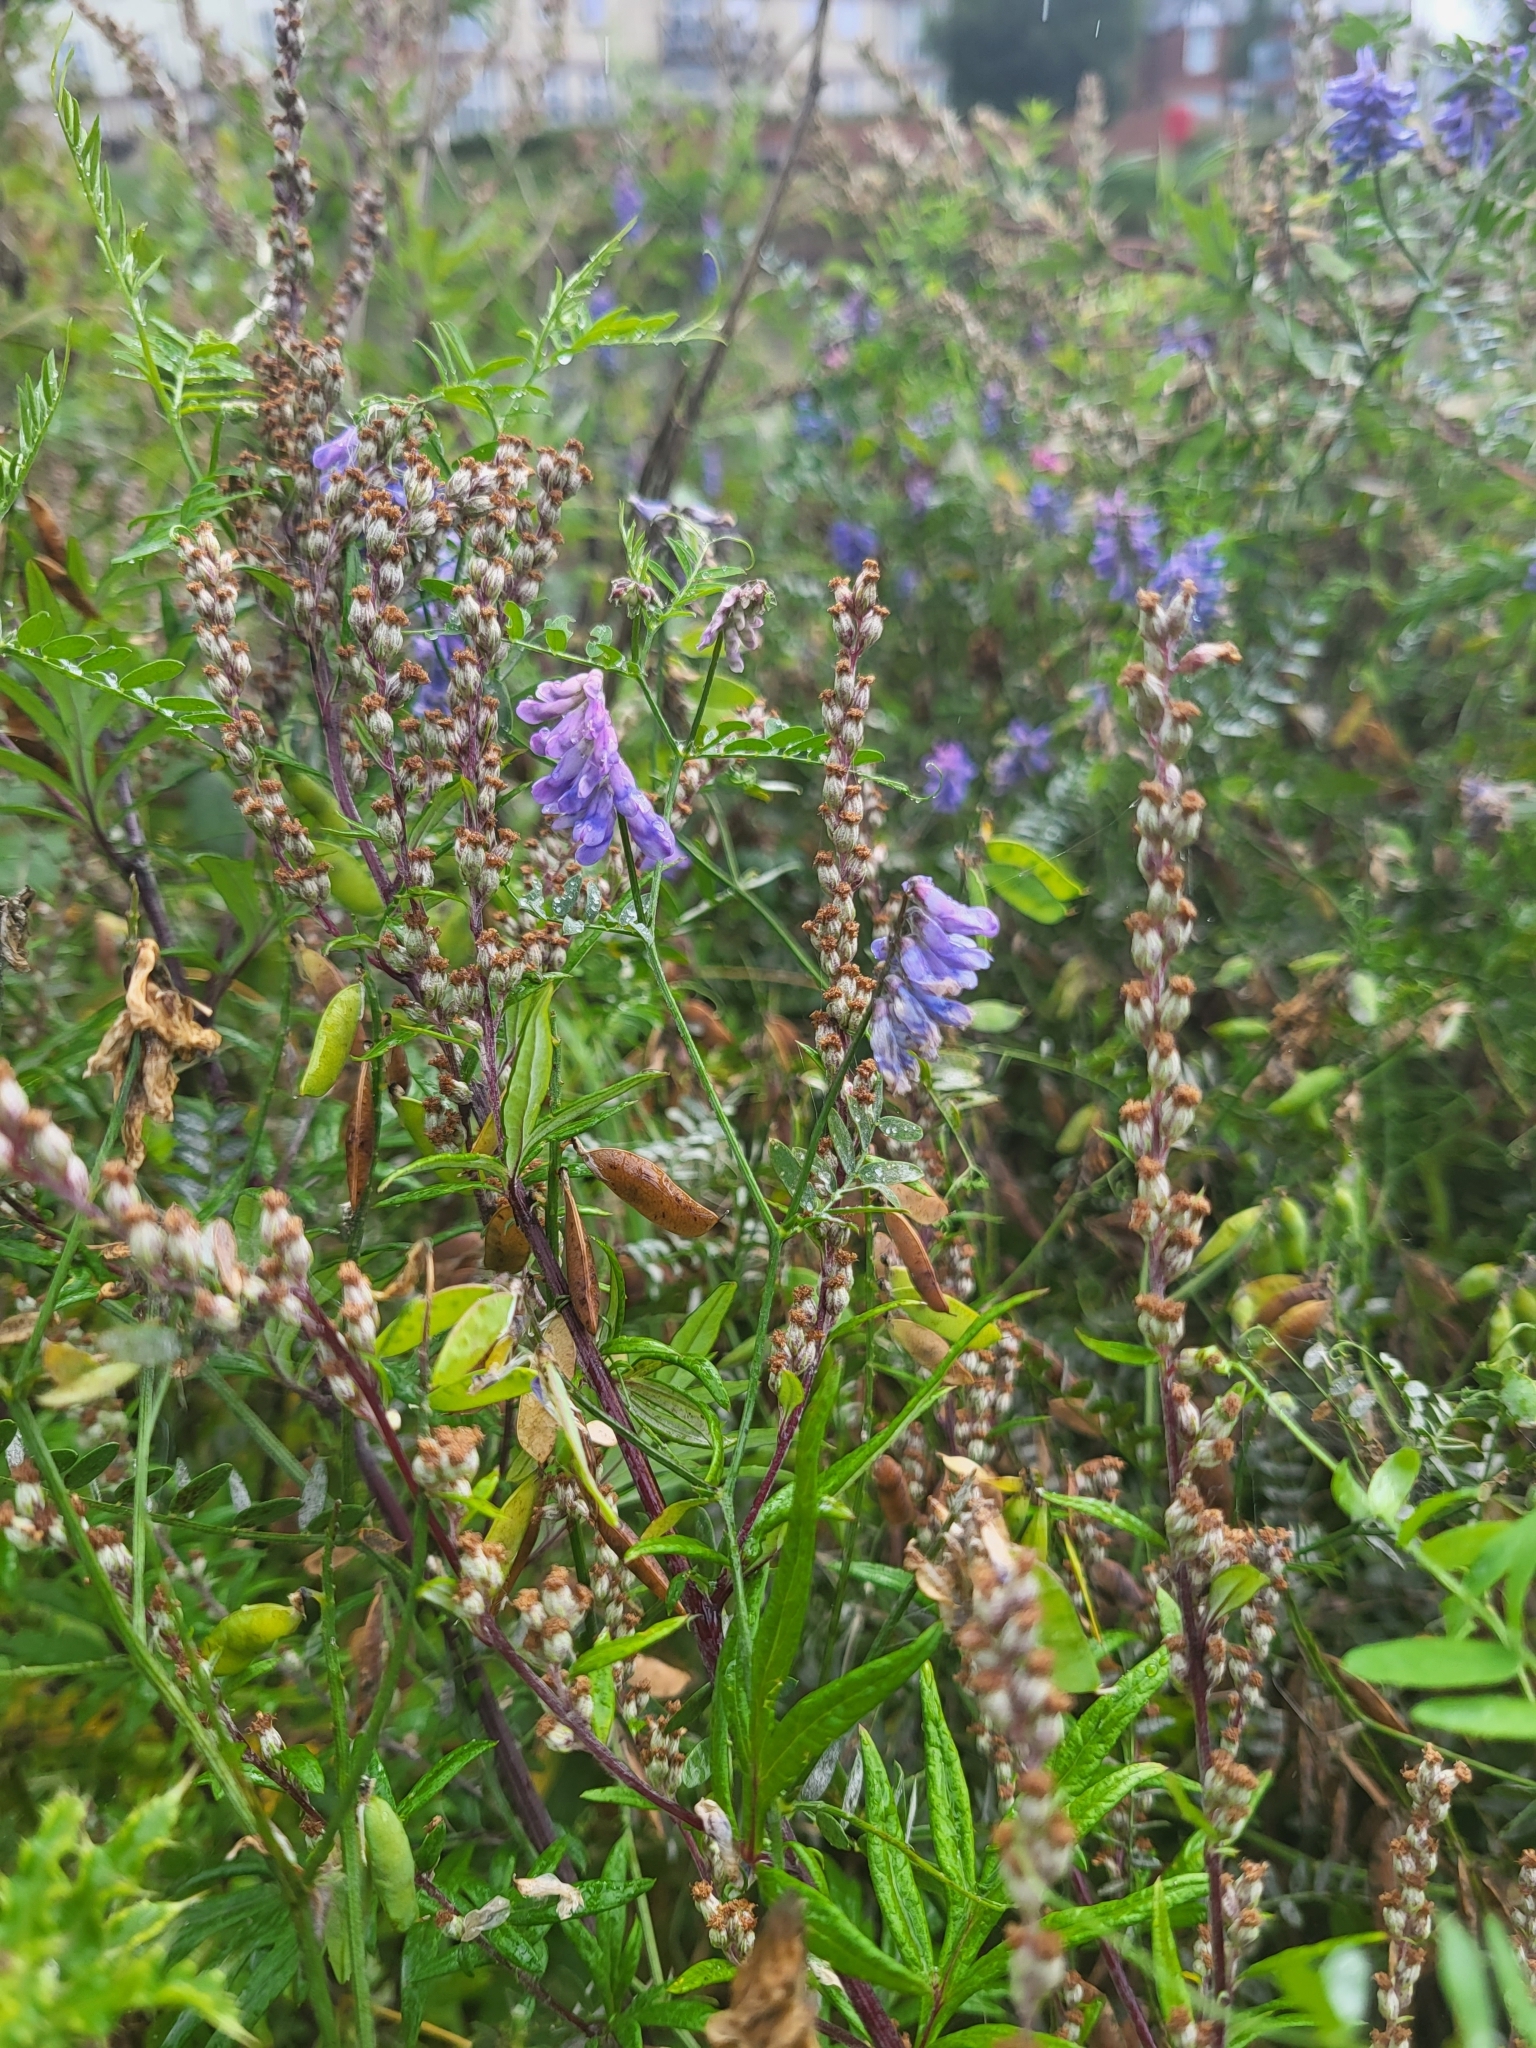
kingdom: Plantae
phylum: Tracheophyta
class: Magnoliopsida
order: Fabales
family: Fabaceae
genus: Vicia
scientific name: Vicia cracca
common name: Bird vetch
